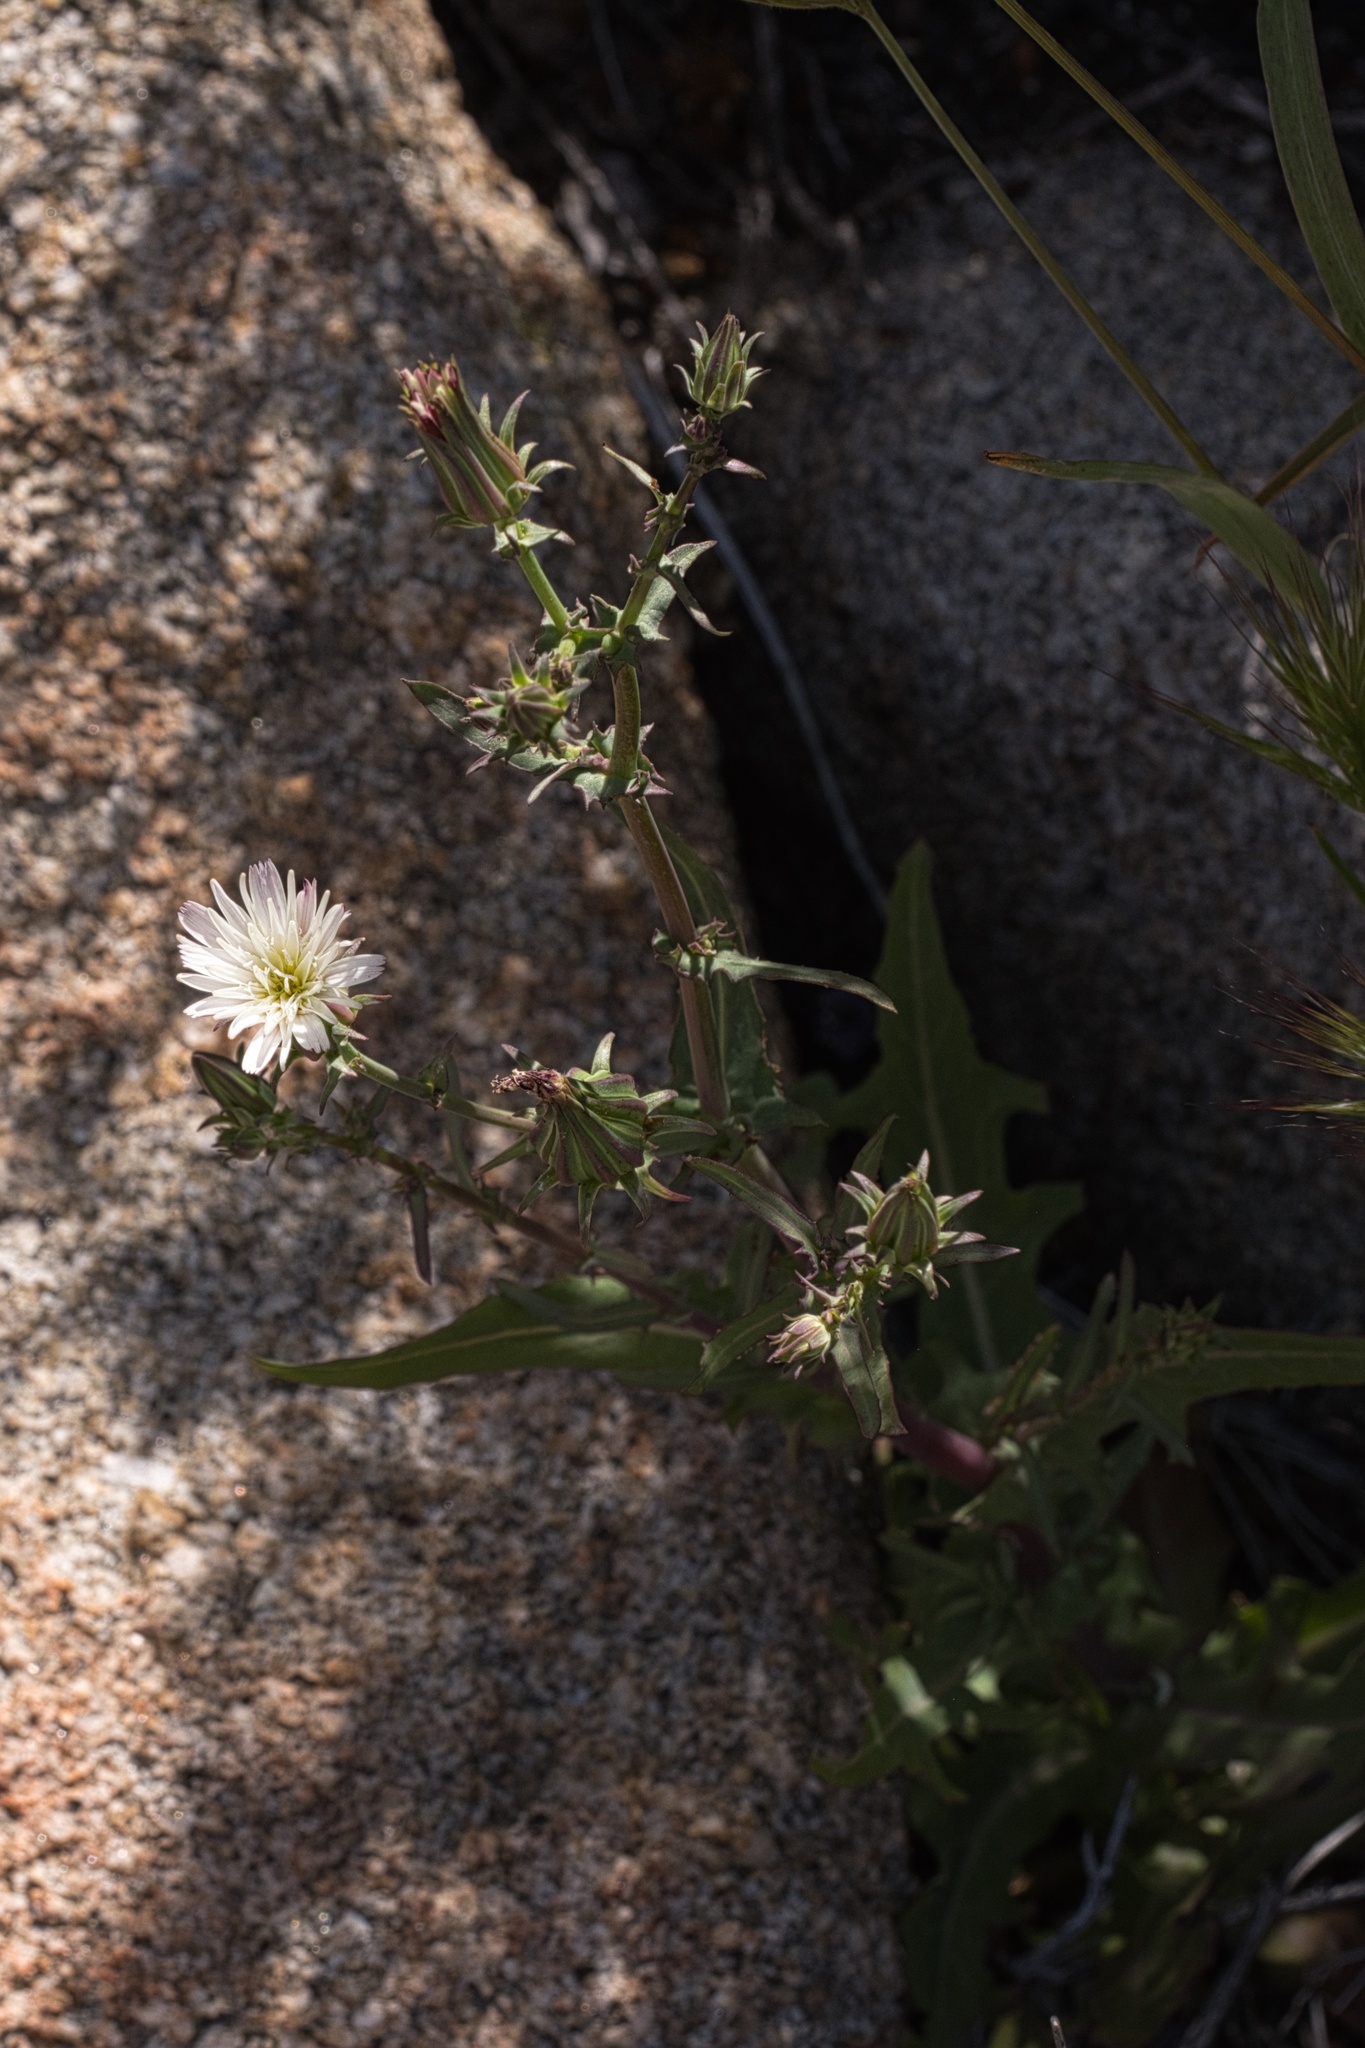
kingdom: Plantae
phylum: Tracheophyta
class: Magnoliopsida
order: Asterales
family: Asteraceae
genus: Rafinesquia
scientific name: Rafinesquia californica
